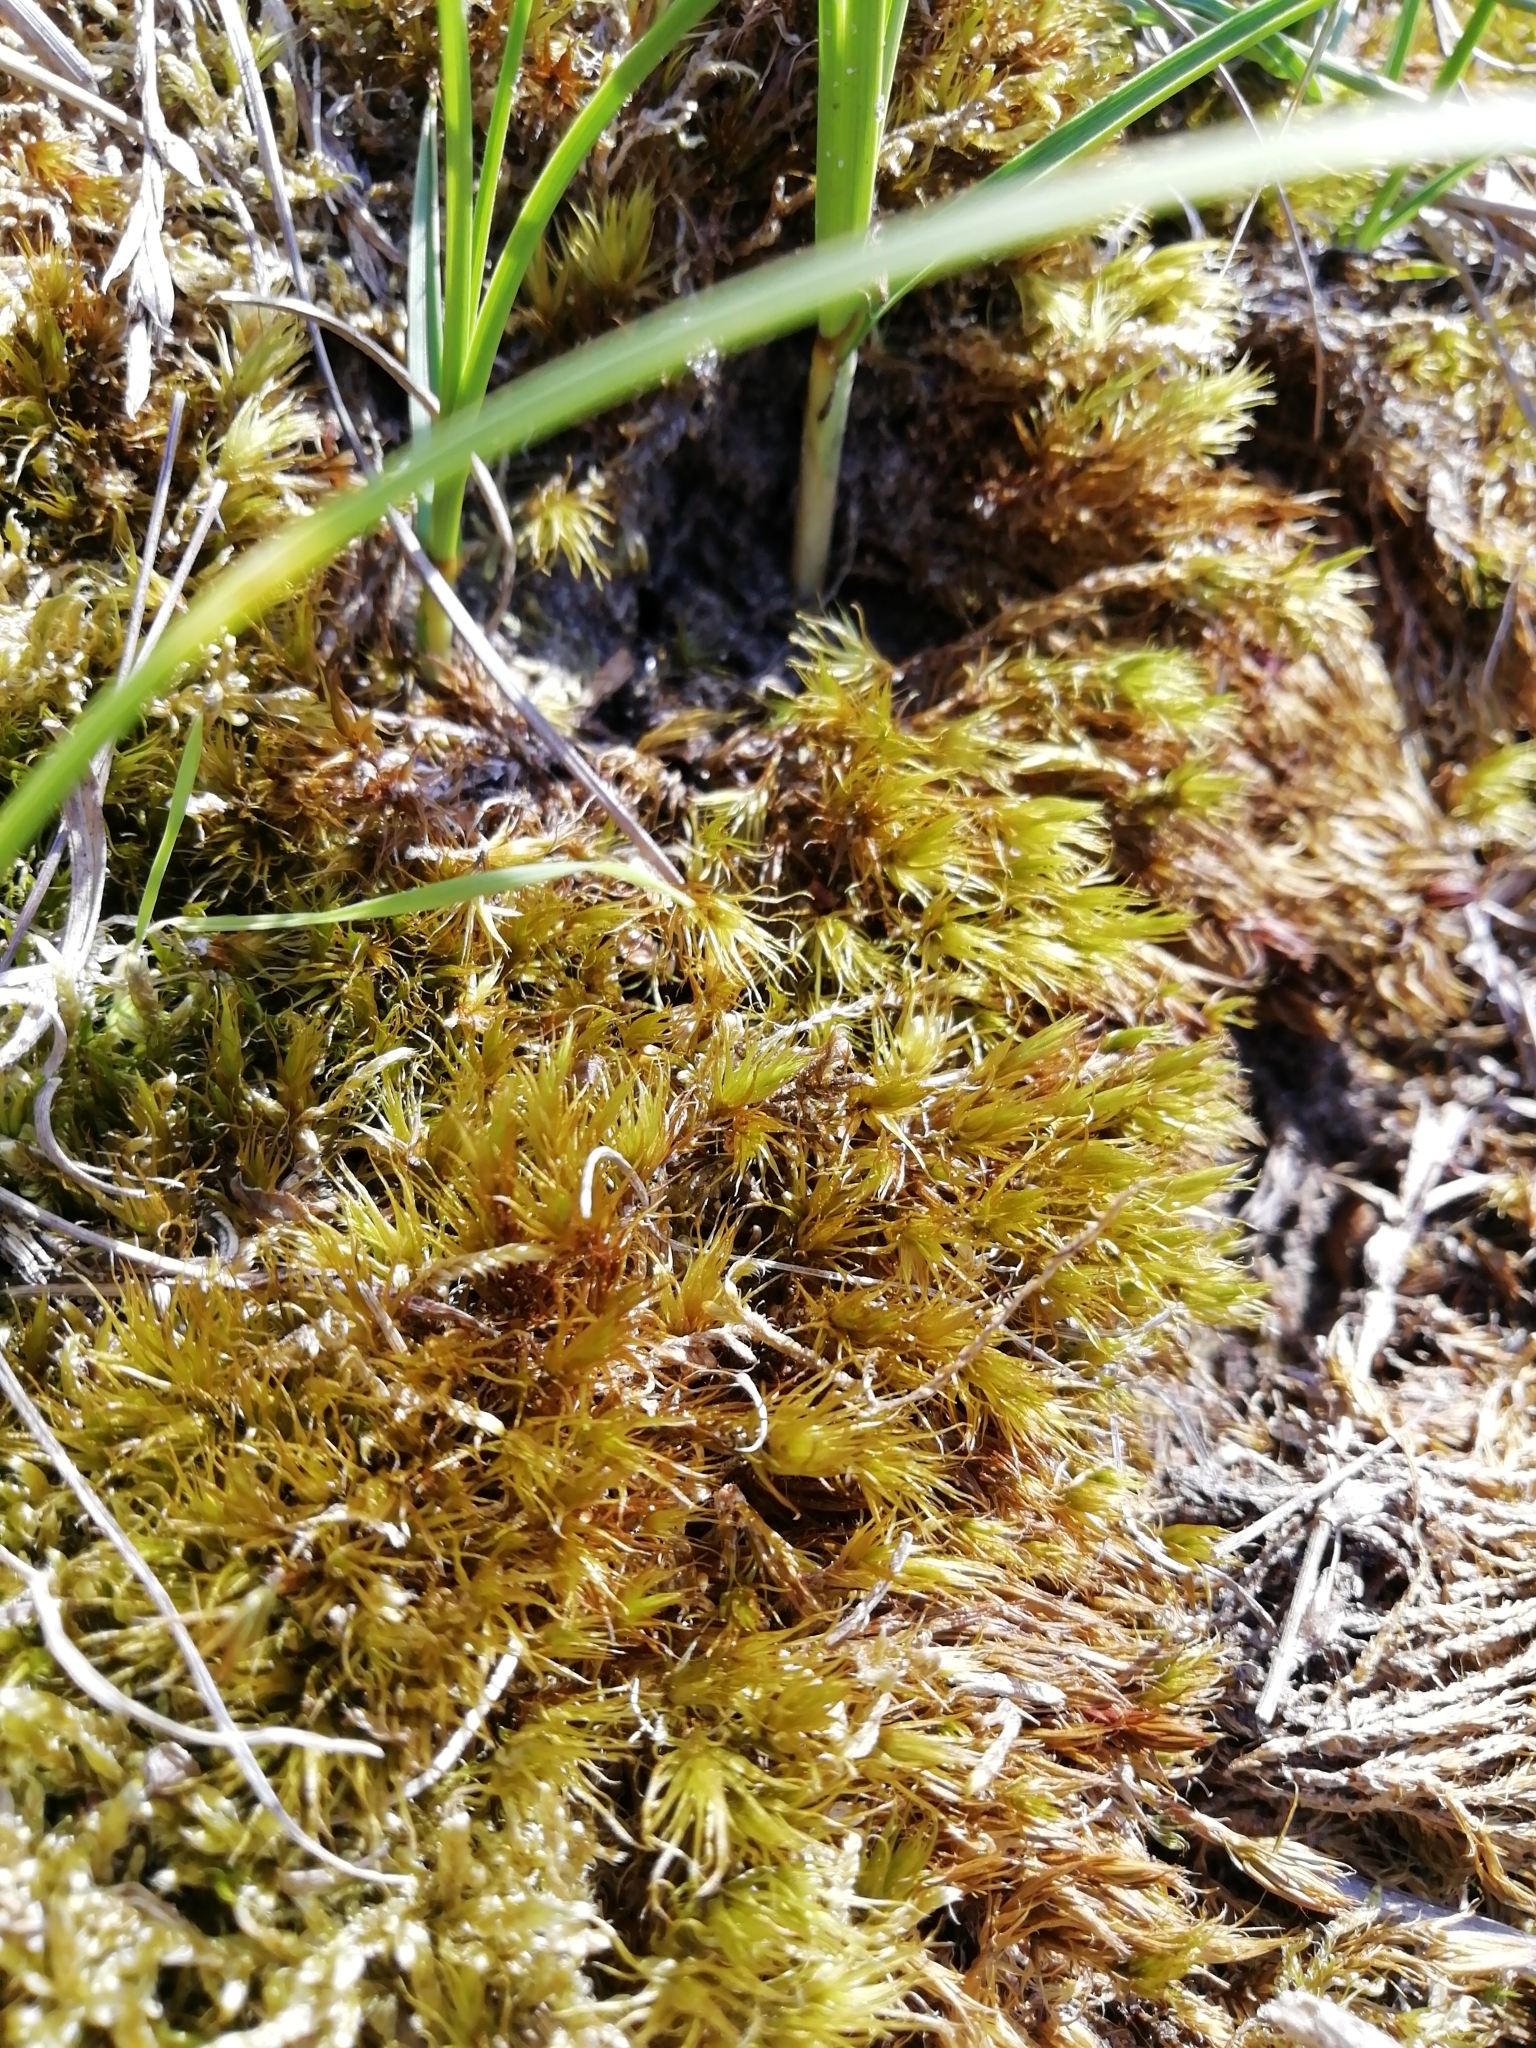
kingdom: Plantae
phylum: Bryophyta
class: Bryopsida
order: Dicranales
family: Dicranaceae
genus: Dicranum
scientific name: Dicranum scoparium
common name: Broom fork-moss
